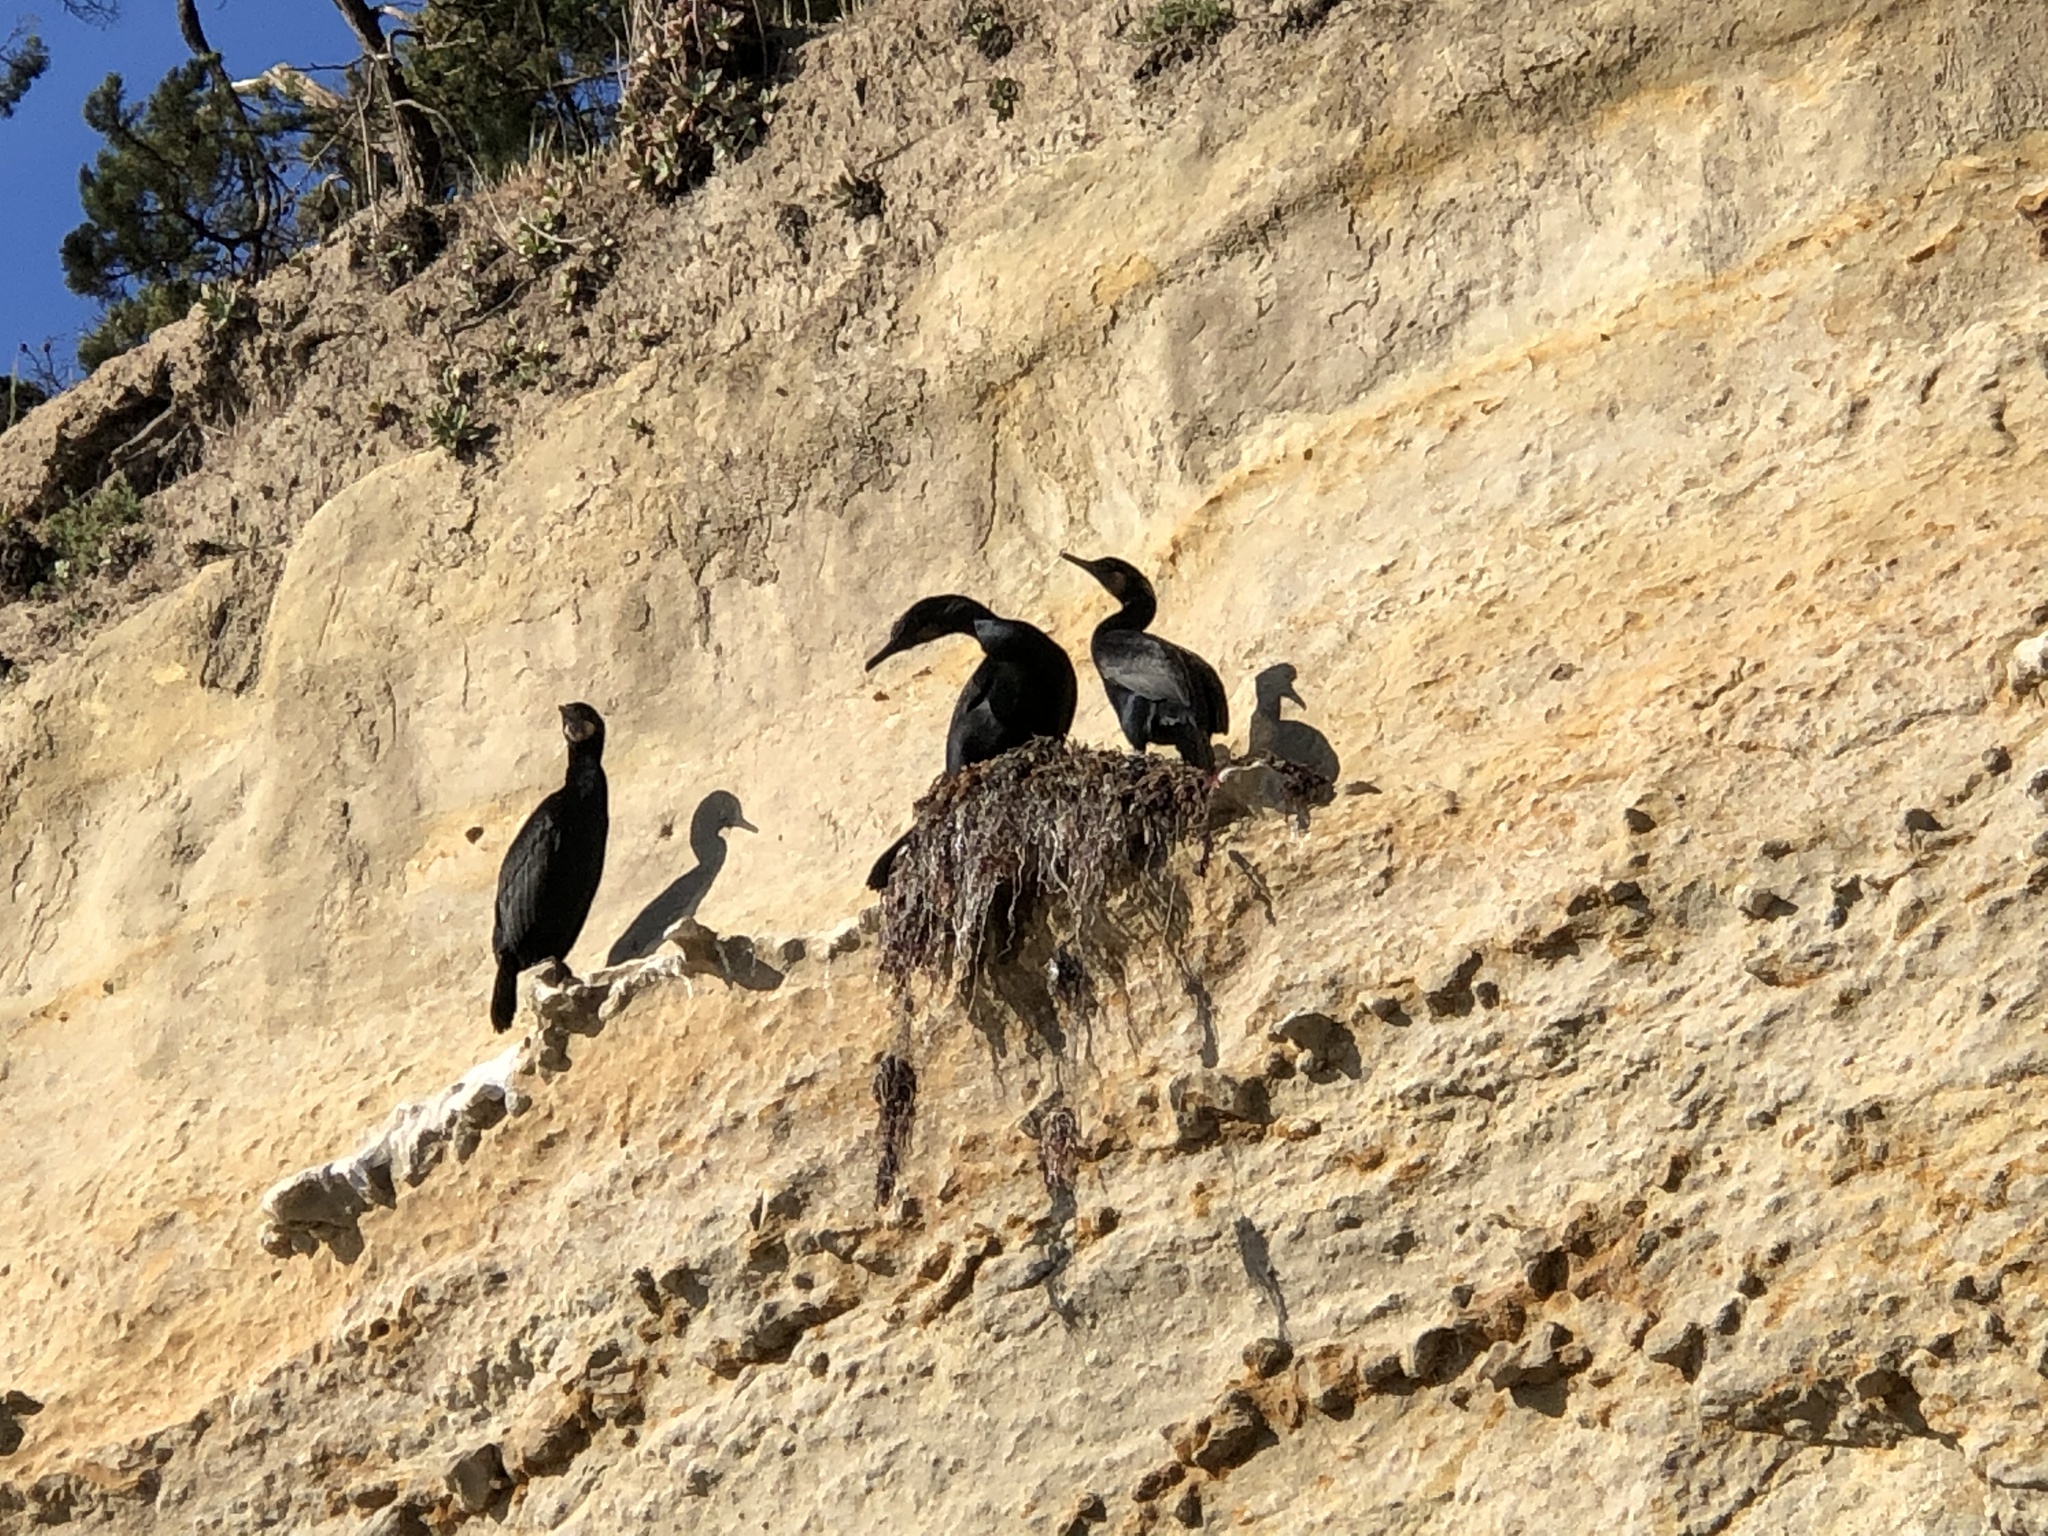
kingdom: Animalia
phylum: Chordata
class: Aves
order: Suliformes
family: Phalacrocoracidae
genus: Urile
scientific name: Urile penicillatus
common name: Brandt's cormorant
